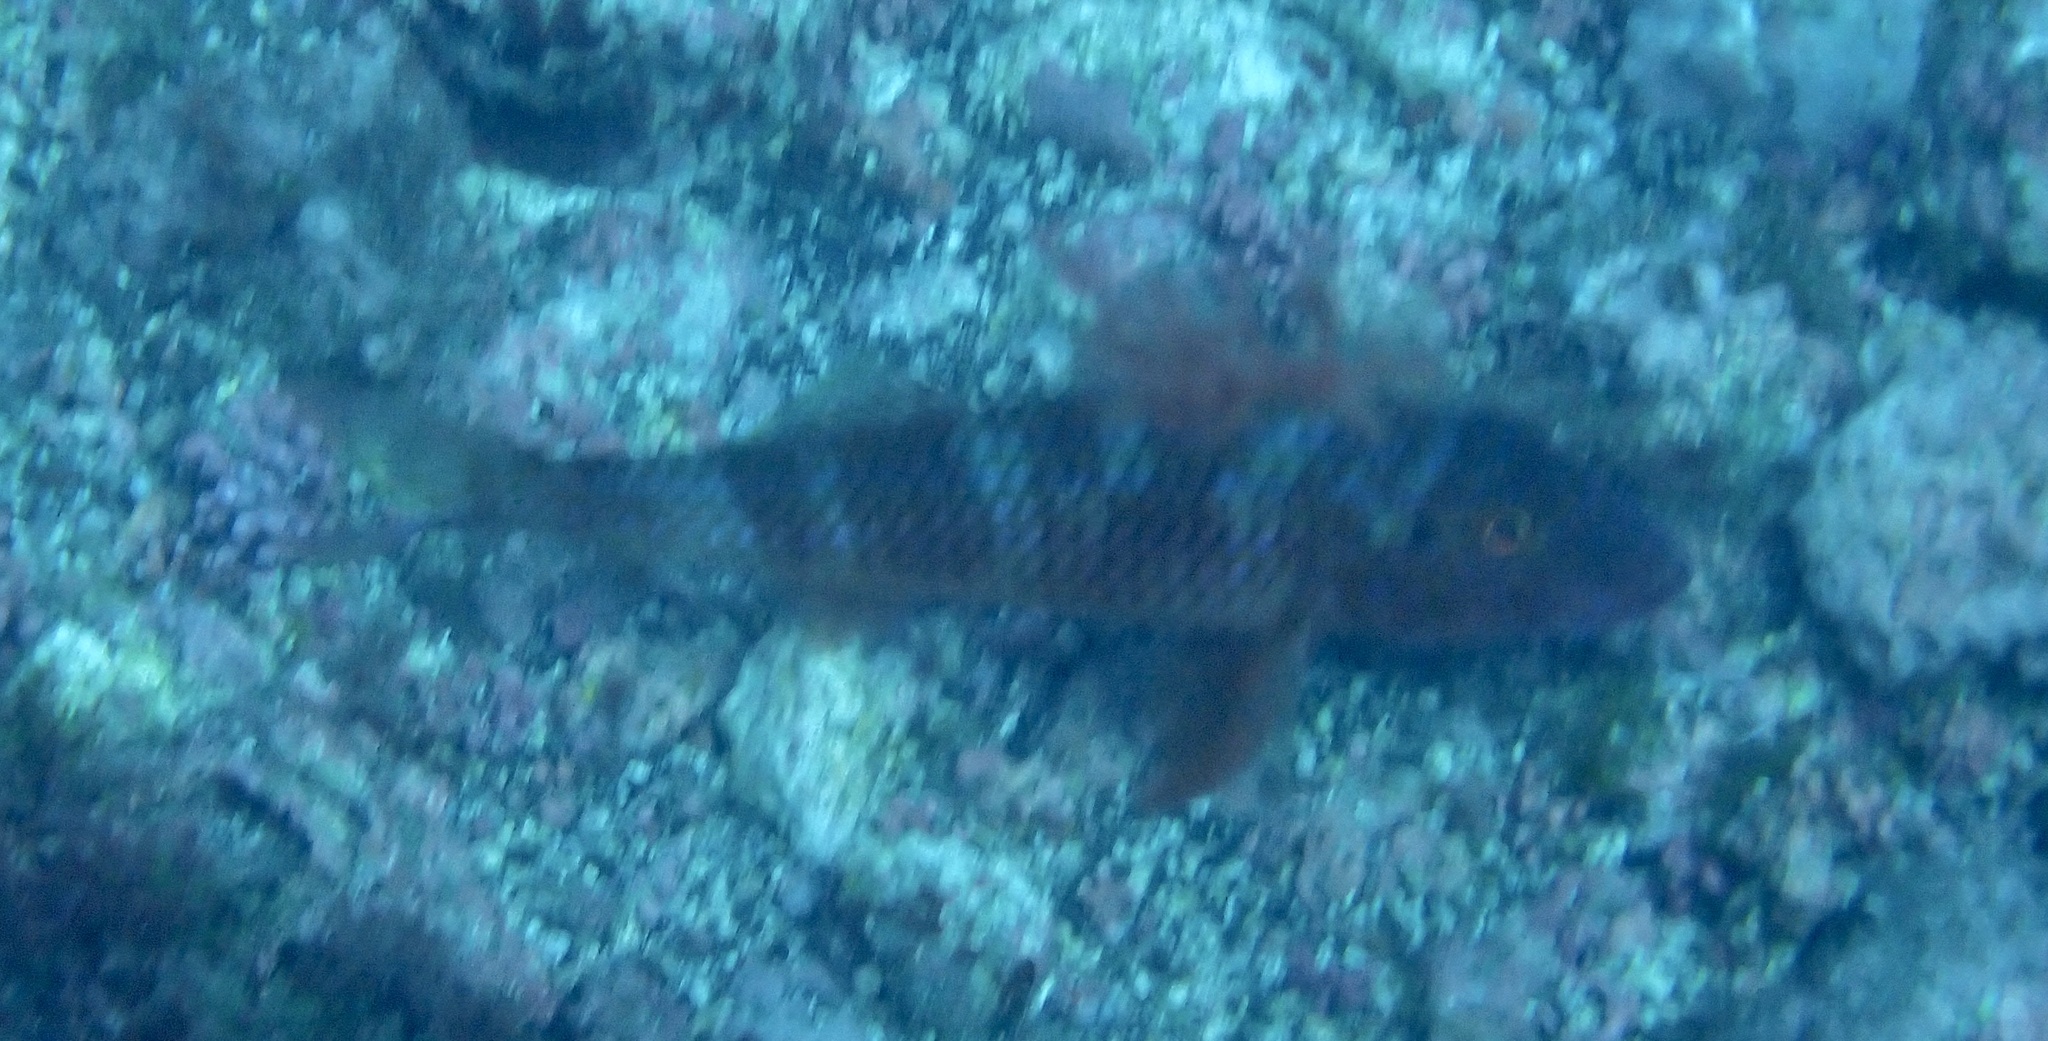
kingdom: Animalia
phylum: Chordata
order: Perciformes
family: Mullidae
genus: Pseudupeneus
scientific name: Pseudupeneus prayensis
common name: West african goatfish
